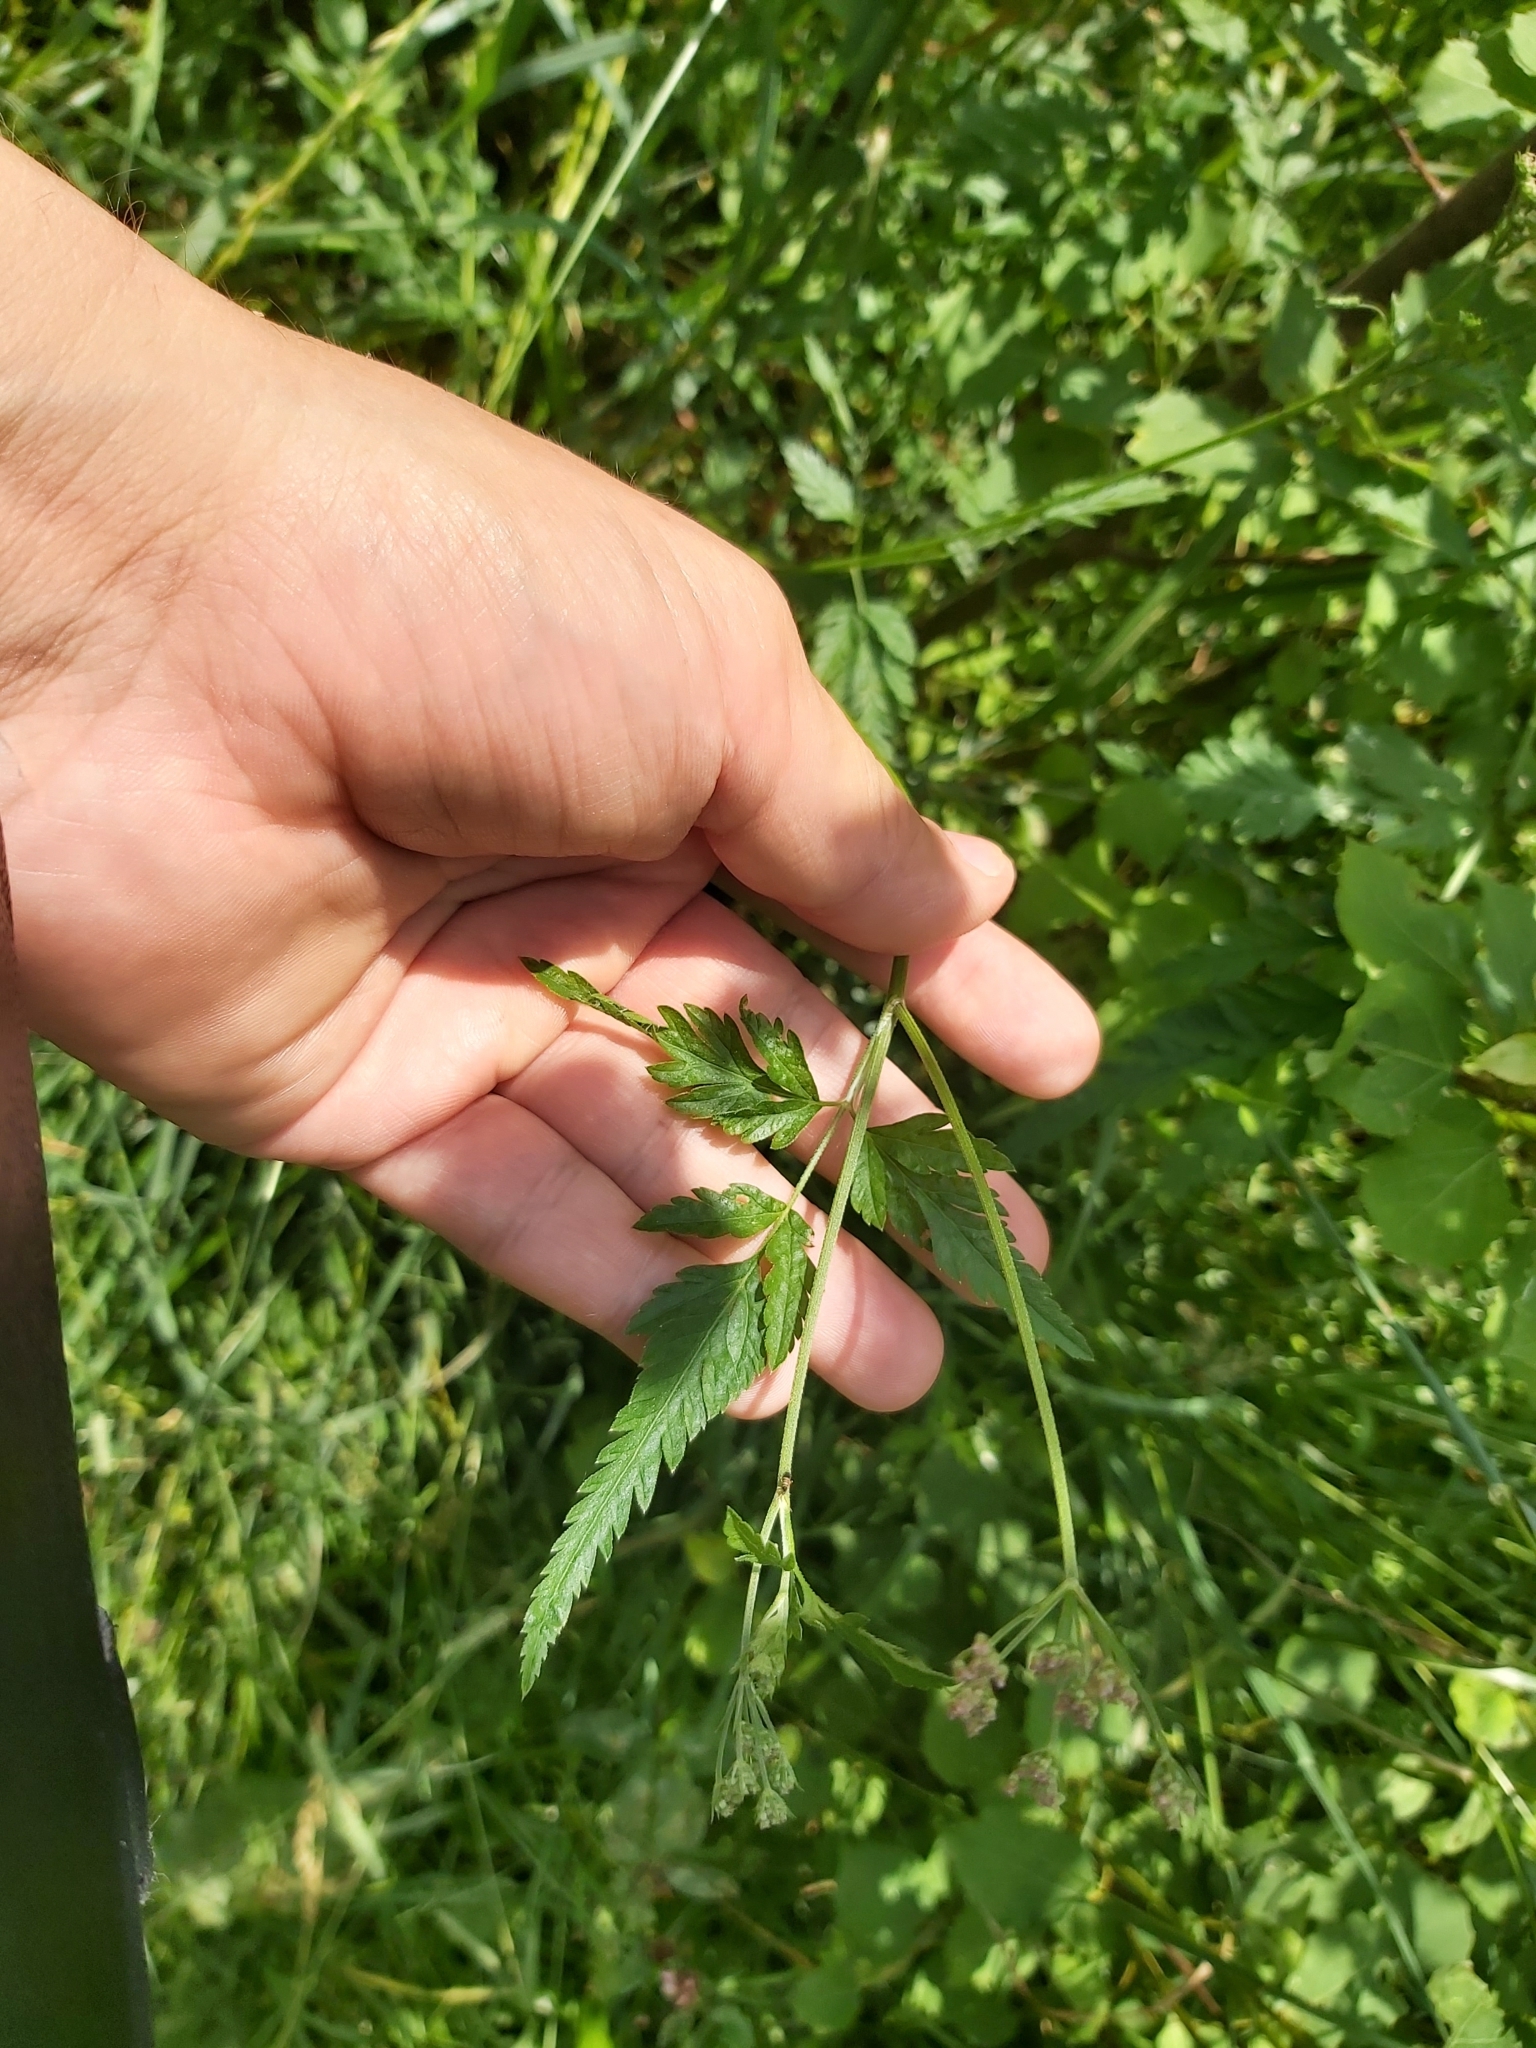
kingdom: Plantae
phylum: Tracheophyta
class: Magnoliopsida
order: Apiales
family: Apiaceae
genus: Torilis
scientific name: Torilis japonica
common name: Upright hedge-parsley
